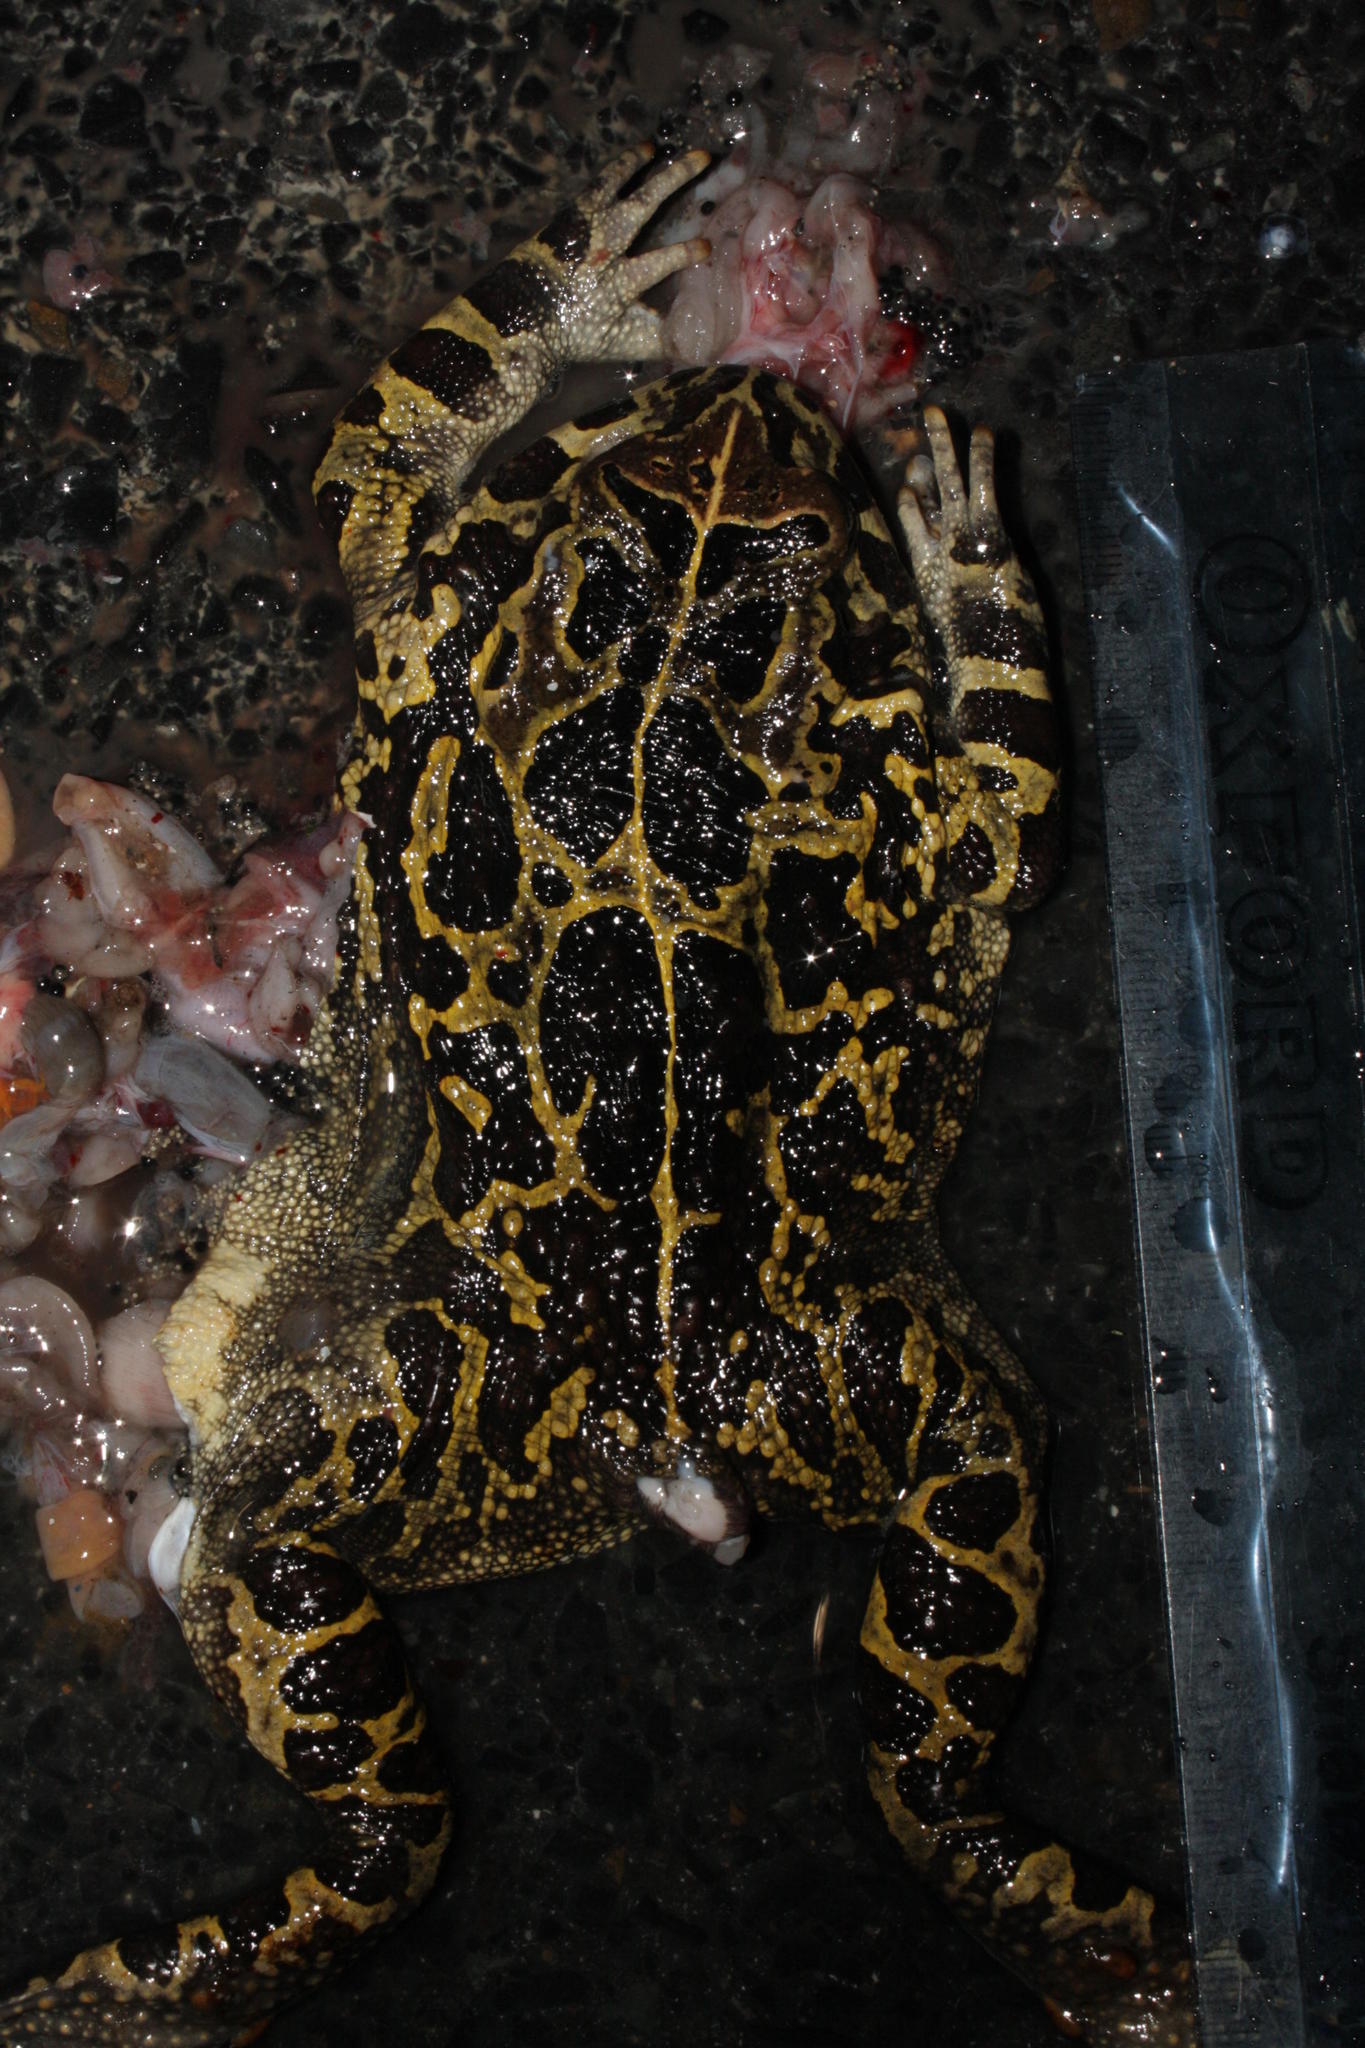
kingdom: Animalia
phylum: Chordata
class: Amphibia
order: Anura
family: Bufonidae
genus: Sclerophrys
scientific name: Sclerophrys pantherina
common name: Panther toad
